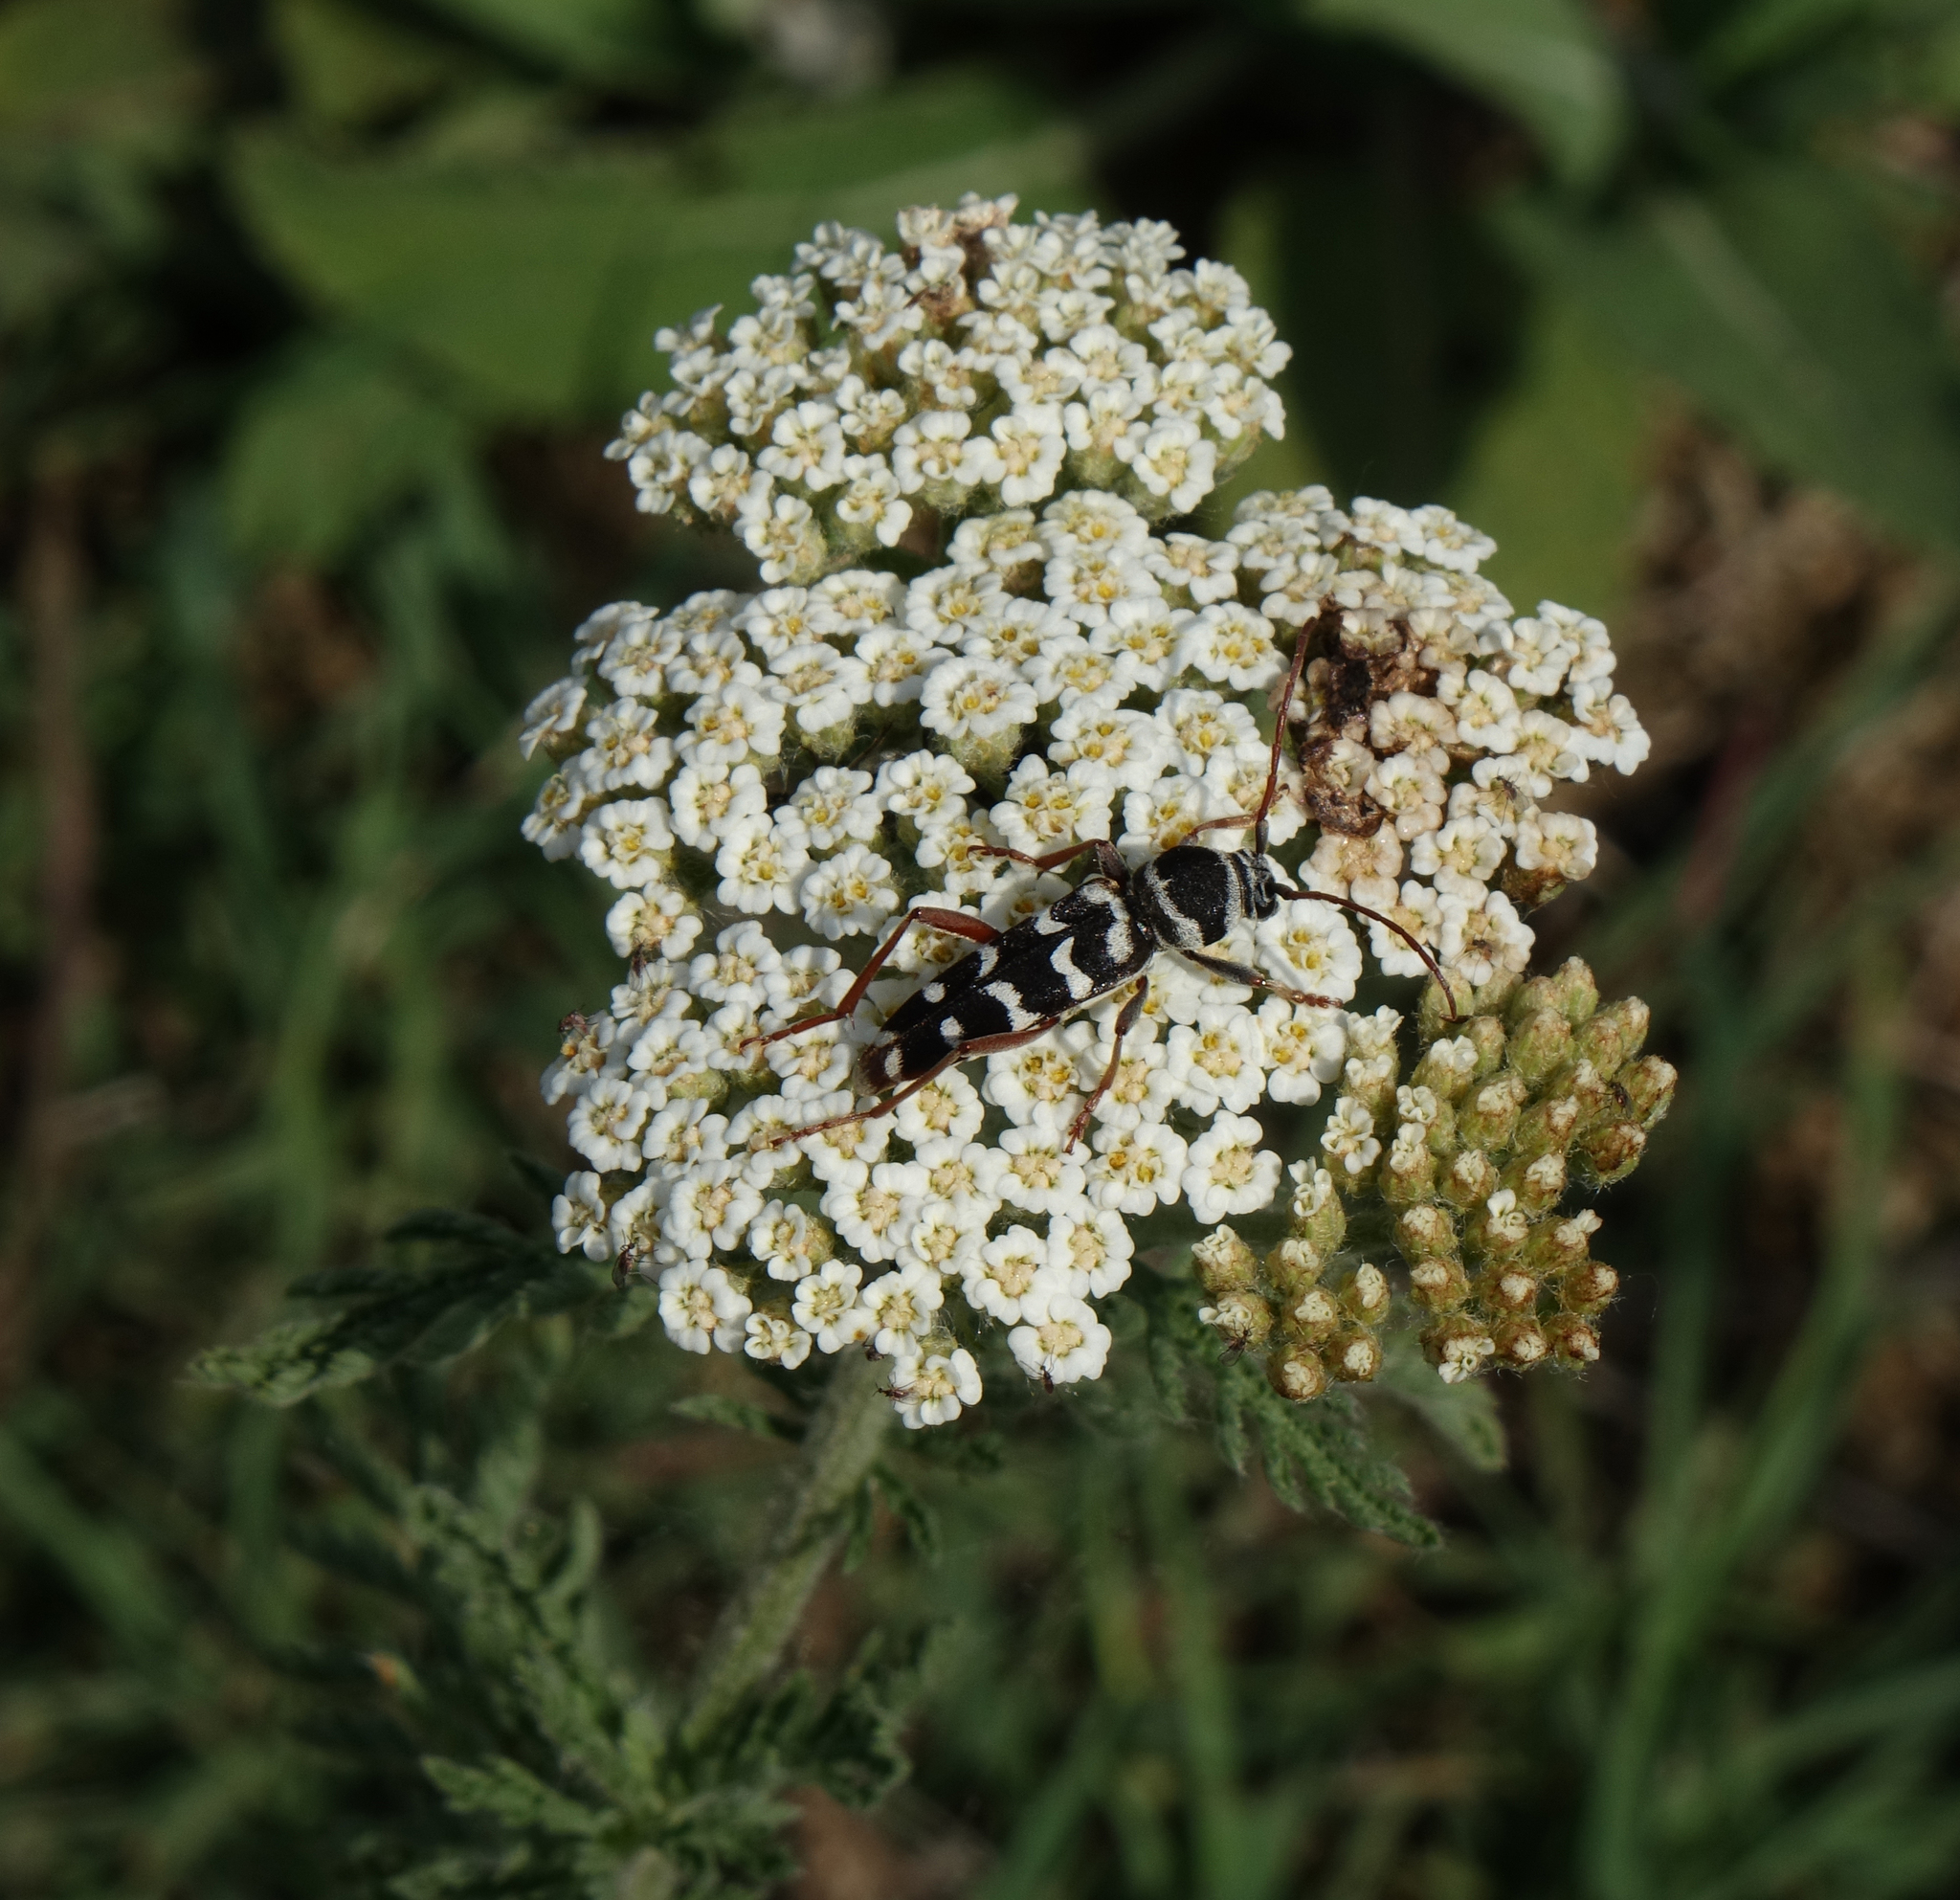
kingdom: Plantae
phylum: Tracheophyta
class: Magnoliopsida
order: Asterales
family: Asteraceae
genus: Achillea
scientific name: Achillea millefolium
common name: Yarrow
